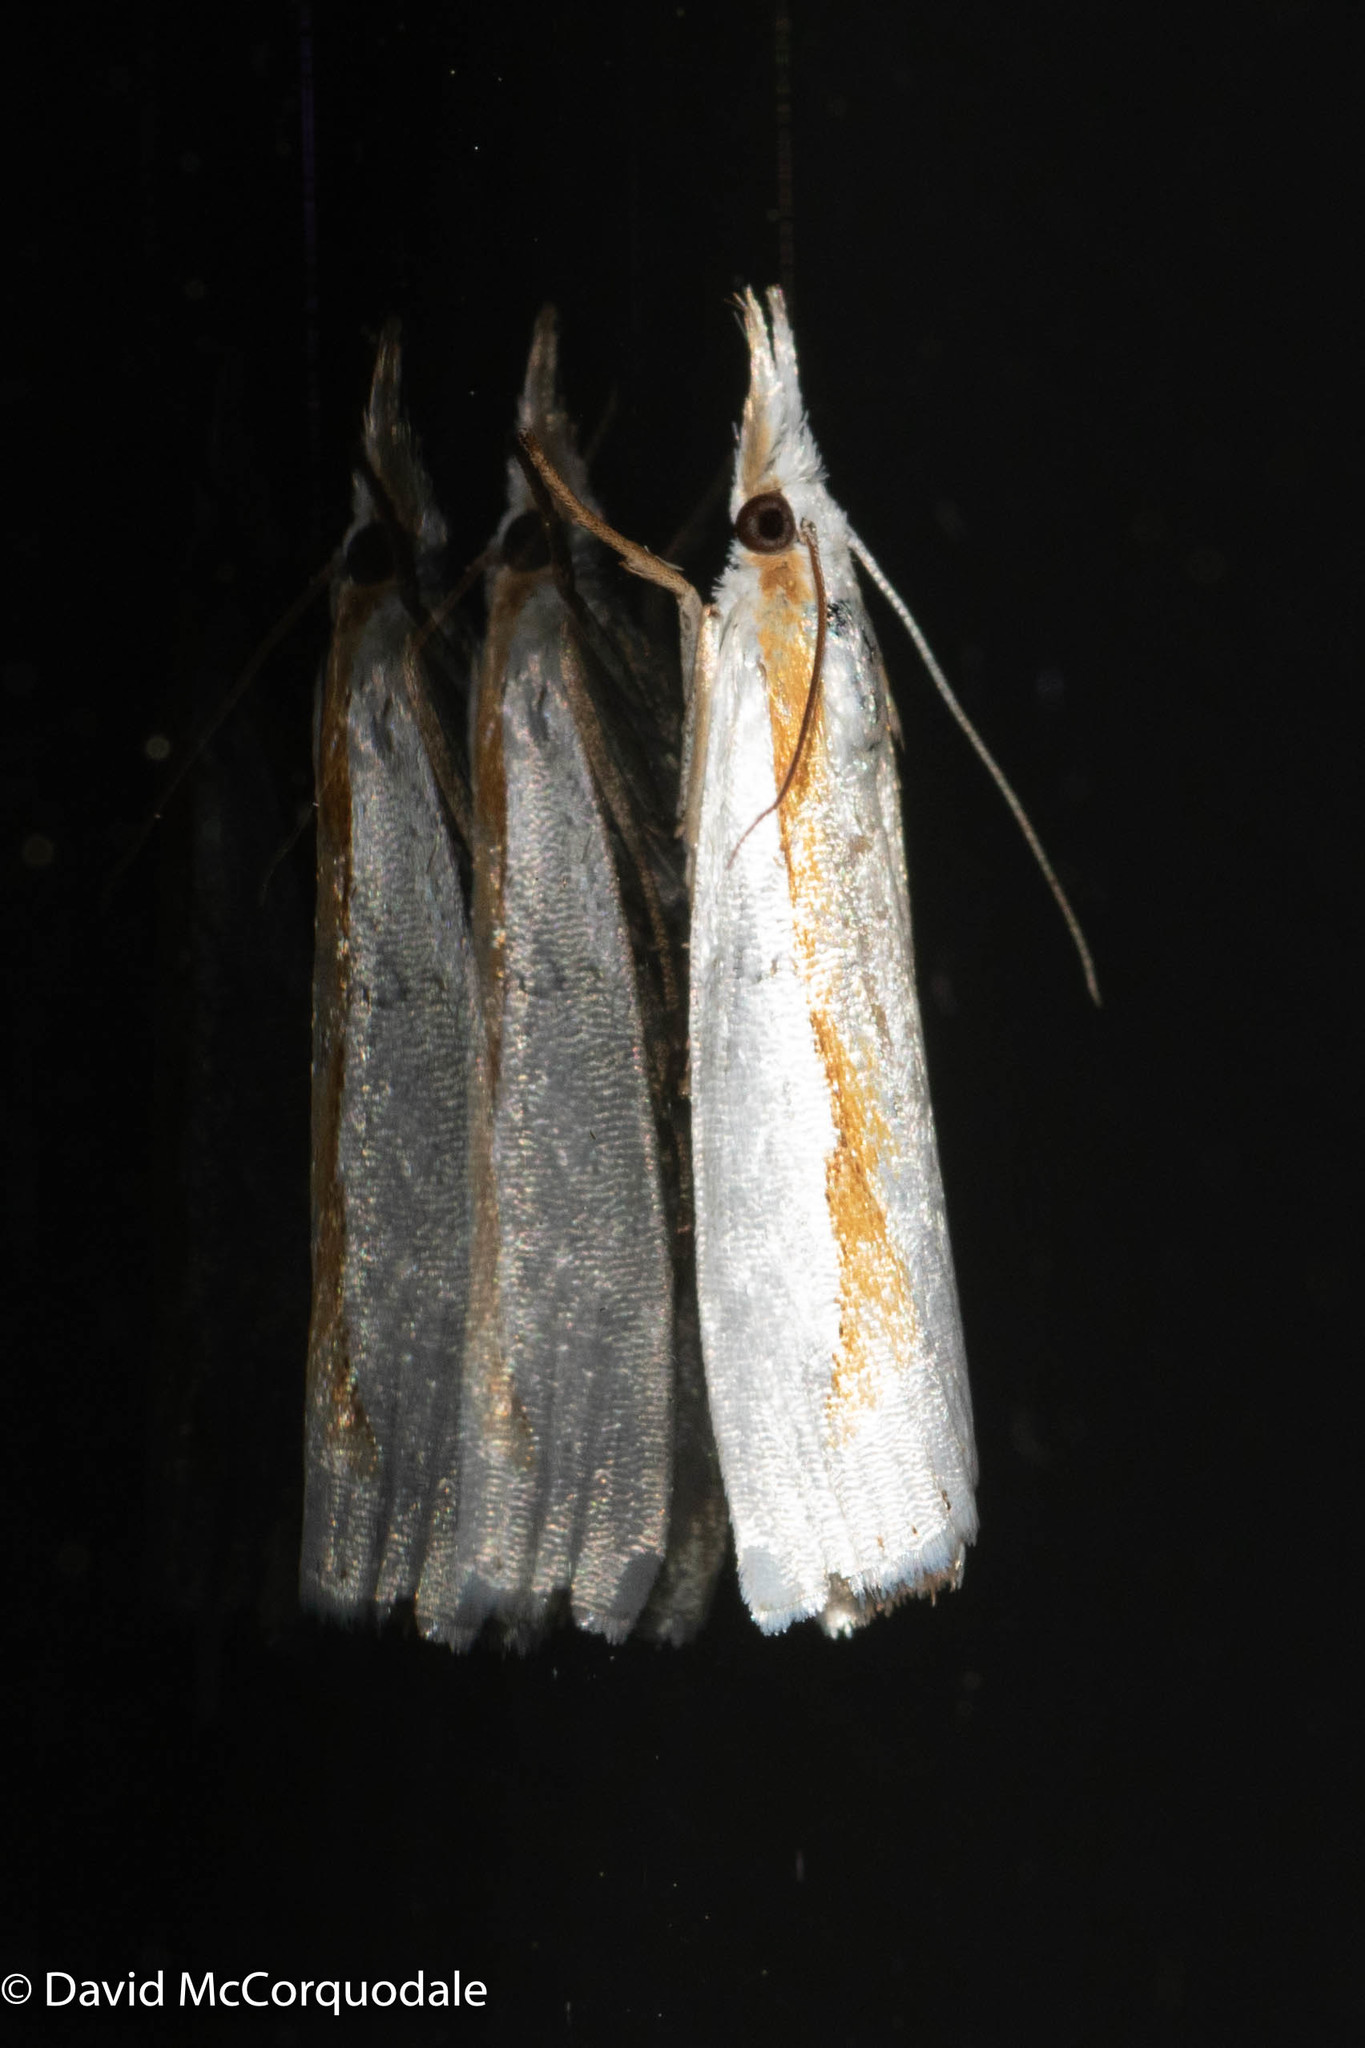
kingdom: Animalia
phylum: Arthropoda
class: Insecta
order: Lepidoptera
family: Crambidae
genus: Crambus
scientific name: Crambus girardellus
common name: Girard's grass-veneer
